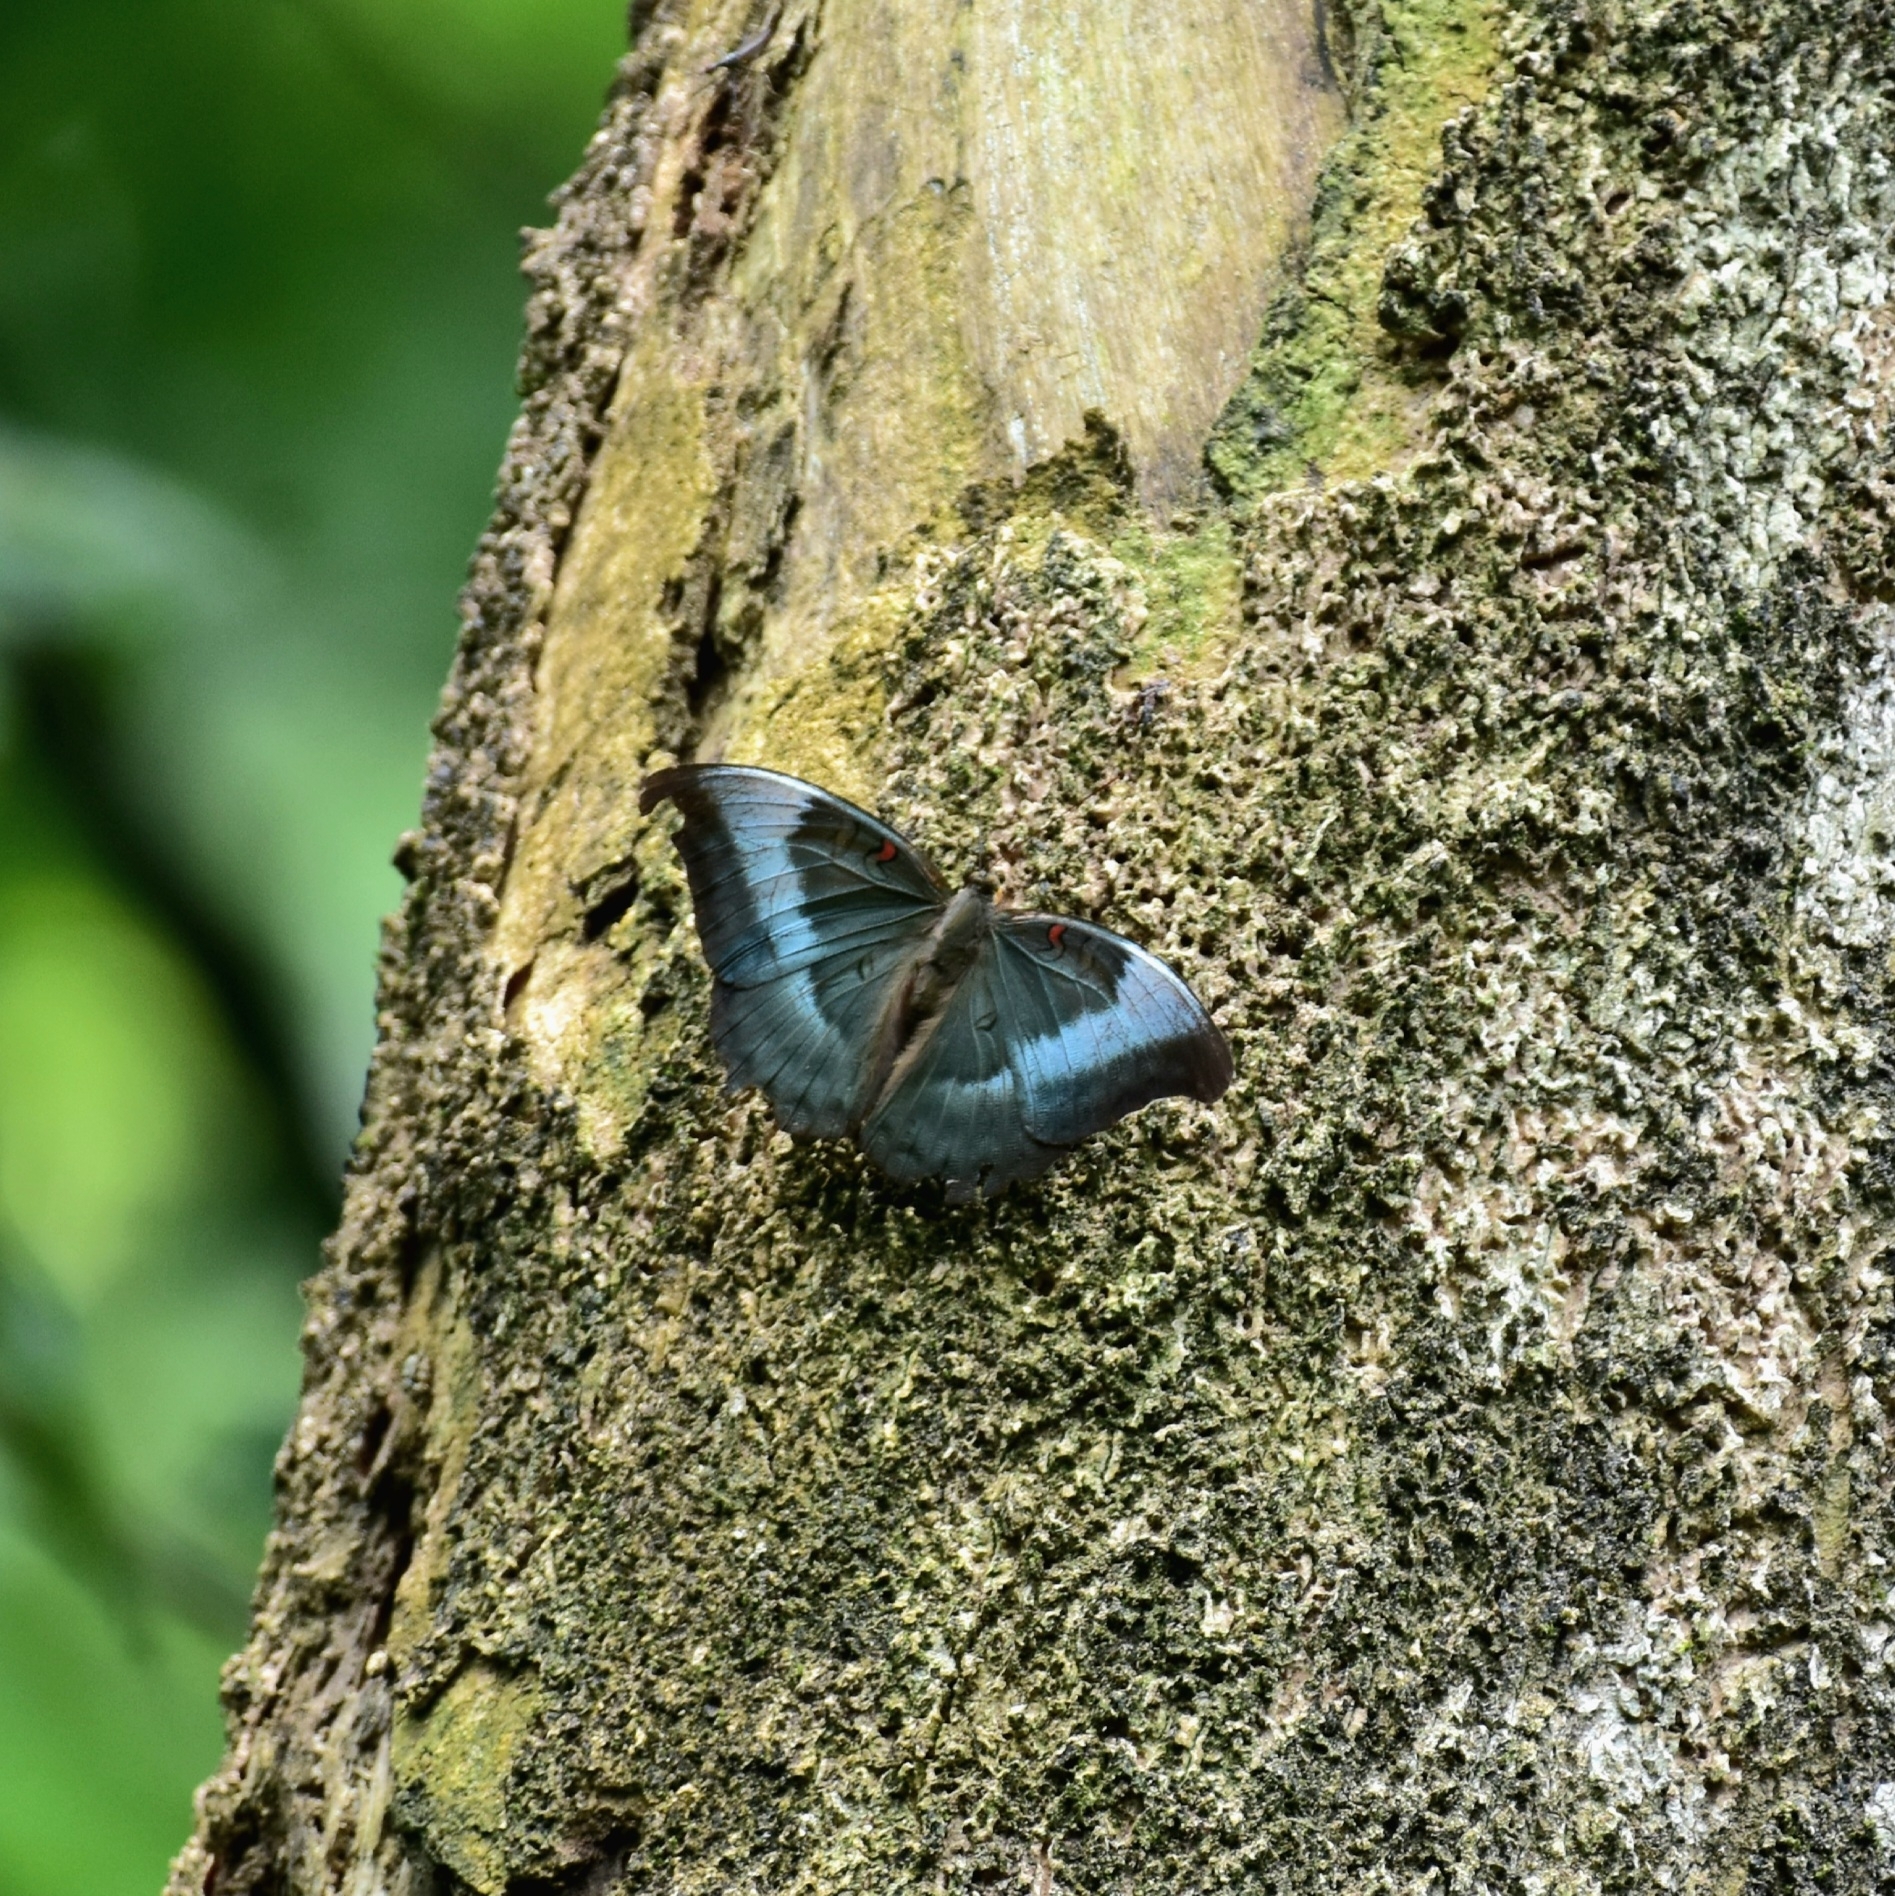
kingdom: Animalia
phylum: Arthropoda
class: Insecta
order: Lepidoptera
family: Nymphalidae
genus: Euthalia
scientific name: Euthalia Dophla evelina
